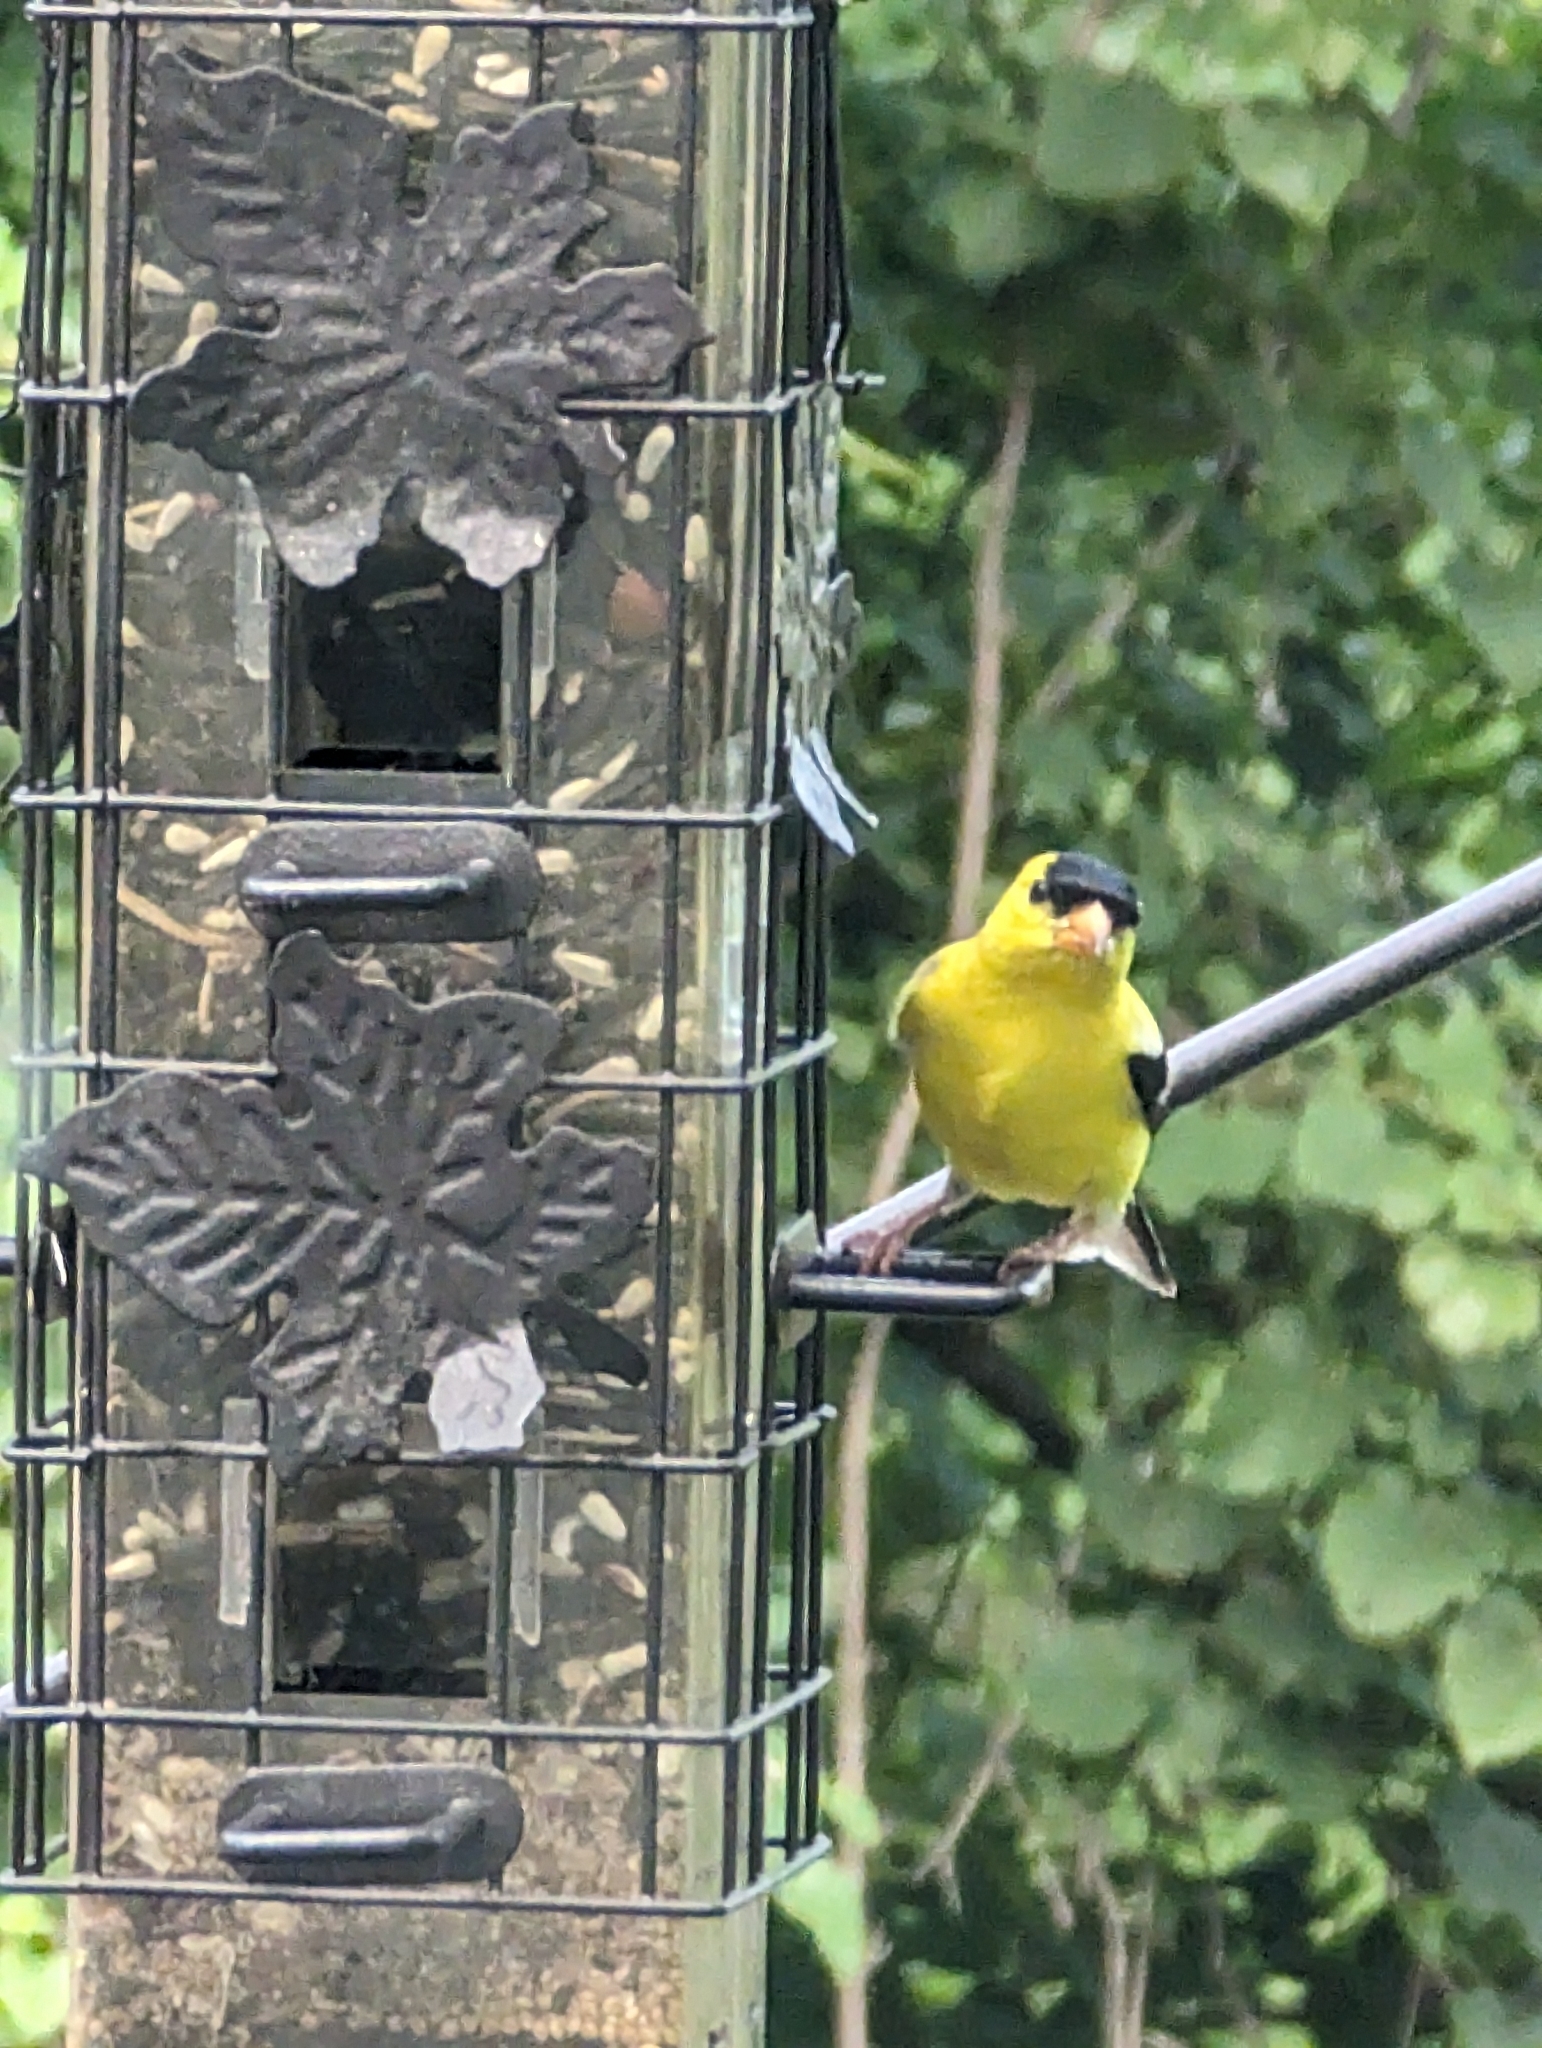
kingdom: Animalia
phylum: Chordata
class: Aves
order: Passeriformes
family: Fringillidae
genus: Spinus
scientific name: Spinus tristis
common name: American goldfinch
